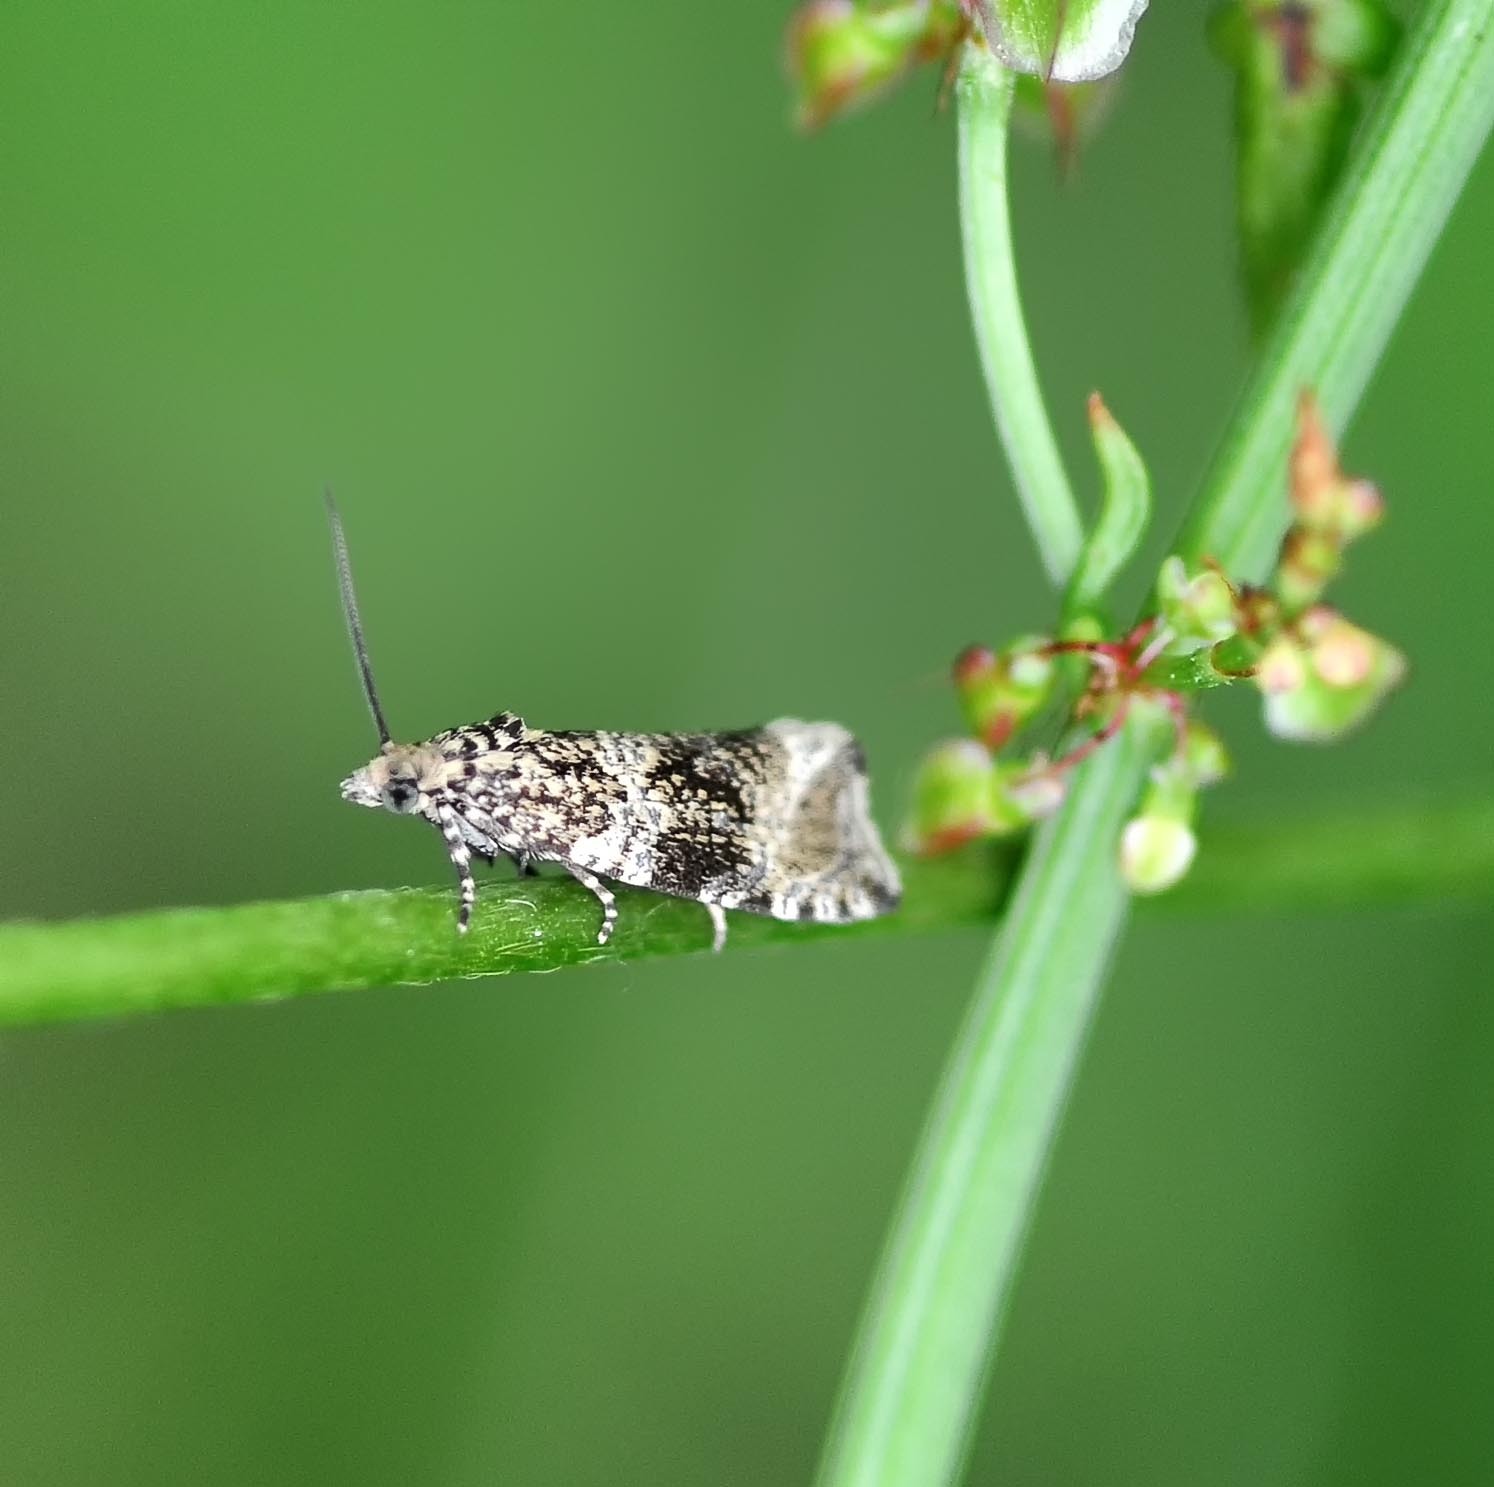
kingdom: Animalia
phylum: Arthropoda
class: Insecta
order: Lepidoptera
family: Tortricidae
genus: Syricoris
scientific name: Syricoris lacunana
